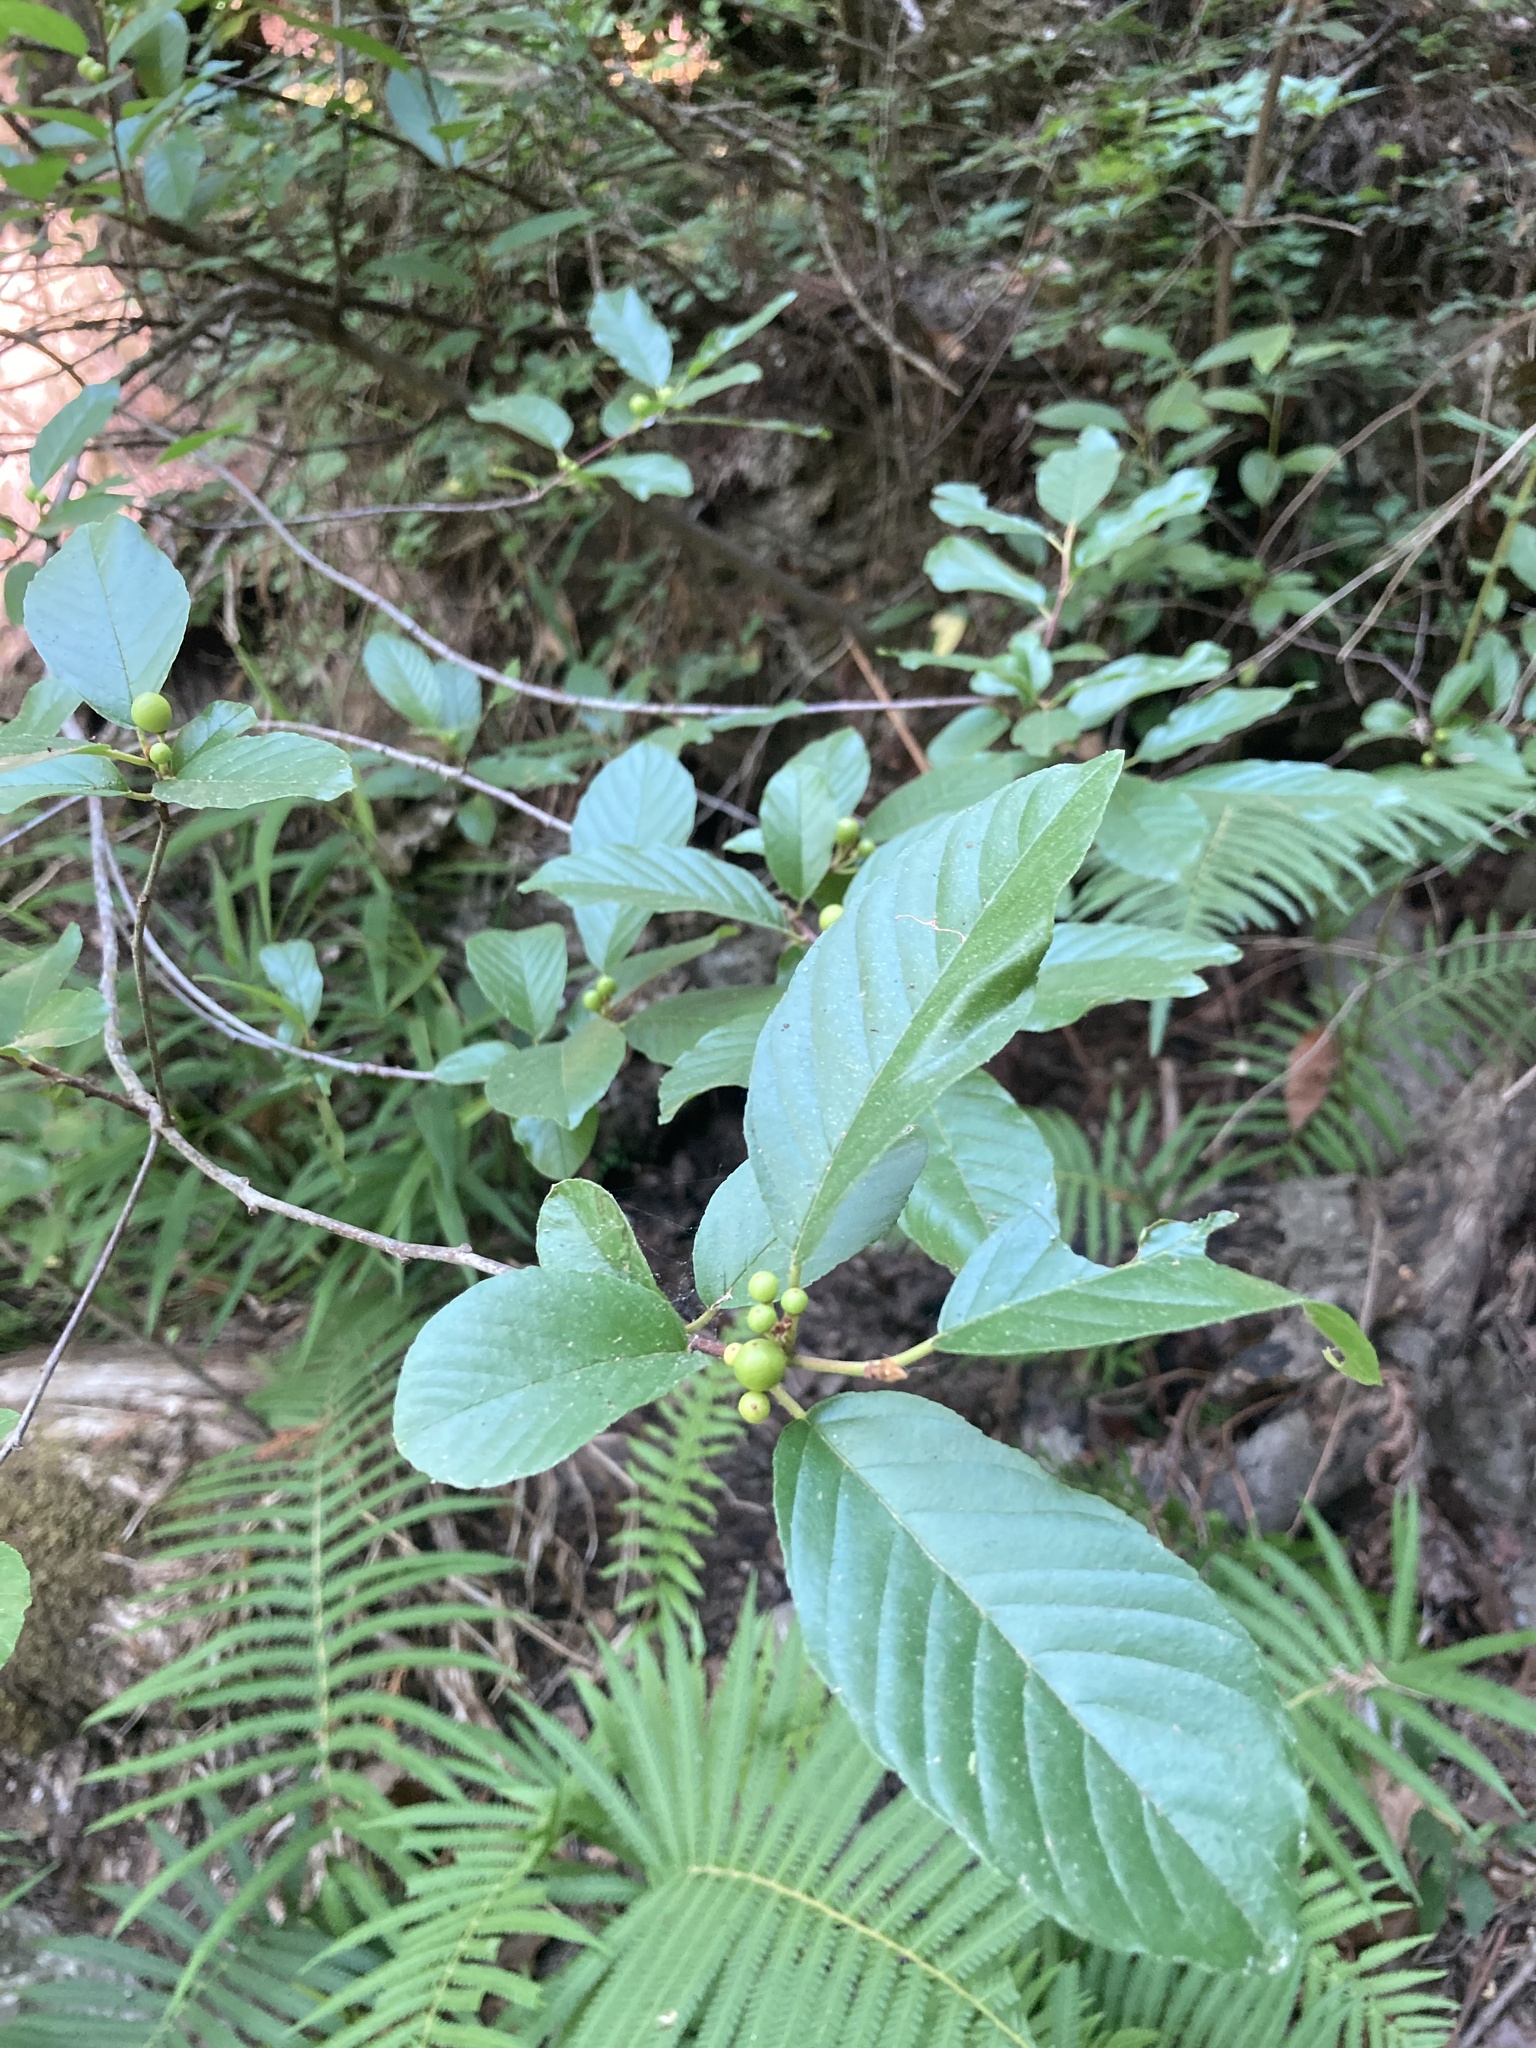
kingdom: Plantae
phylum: Tracheophyta
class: Magnoliopsida
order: Rosales
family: Rhamnaceae
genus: Frangula
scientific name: Frangula caroliniana
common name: Carolina buckthorn
